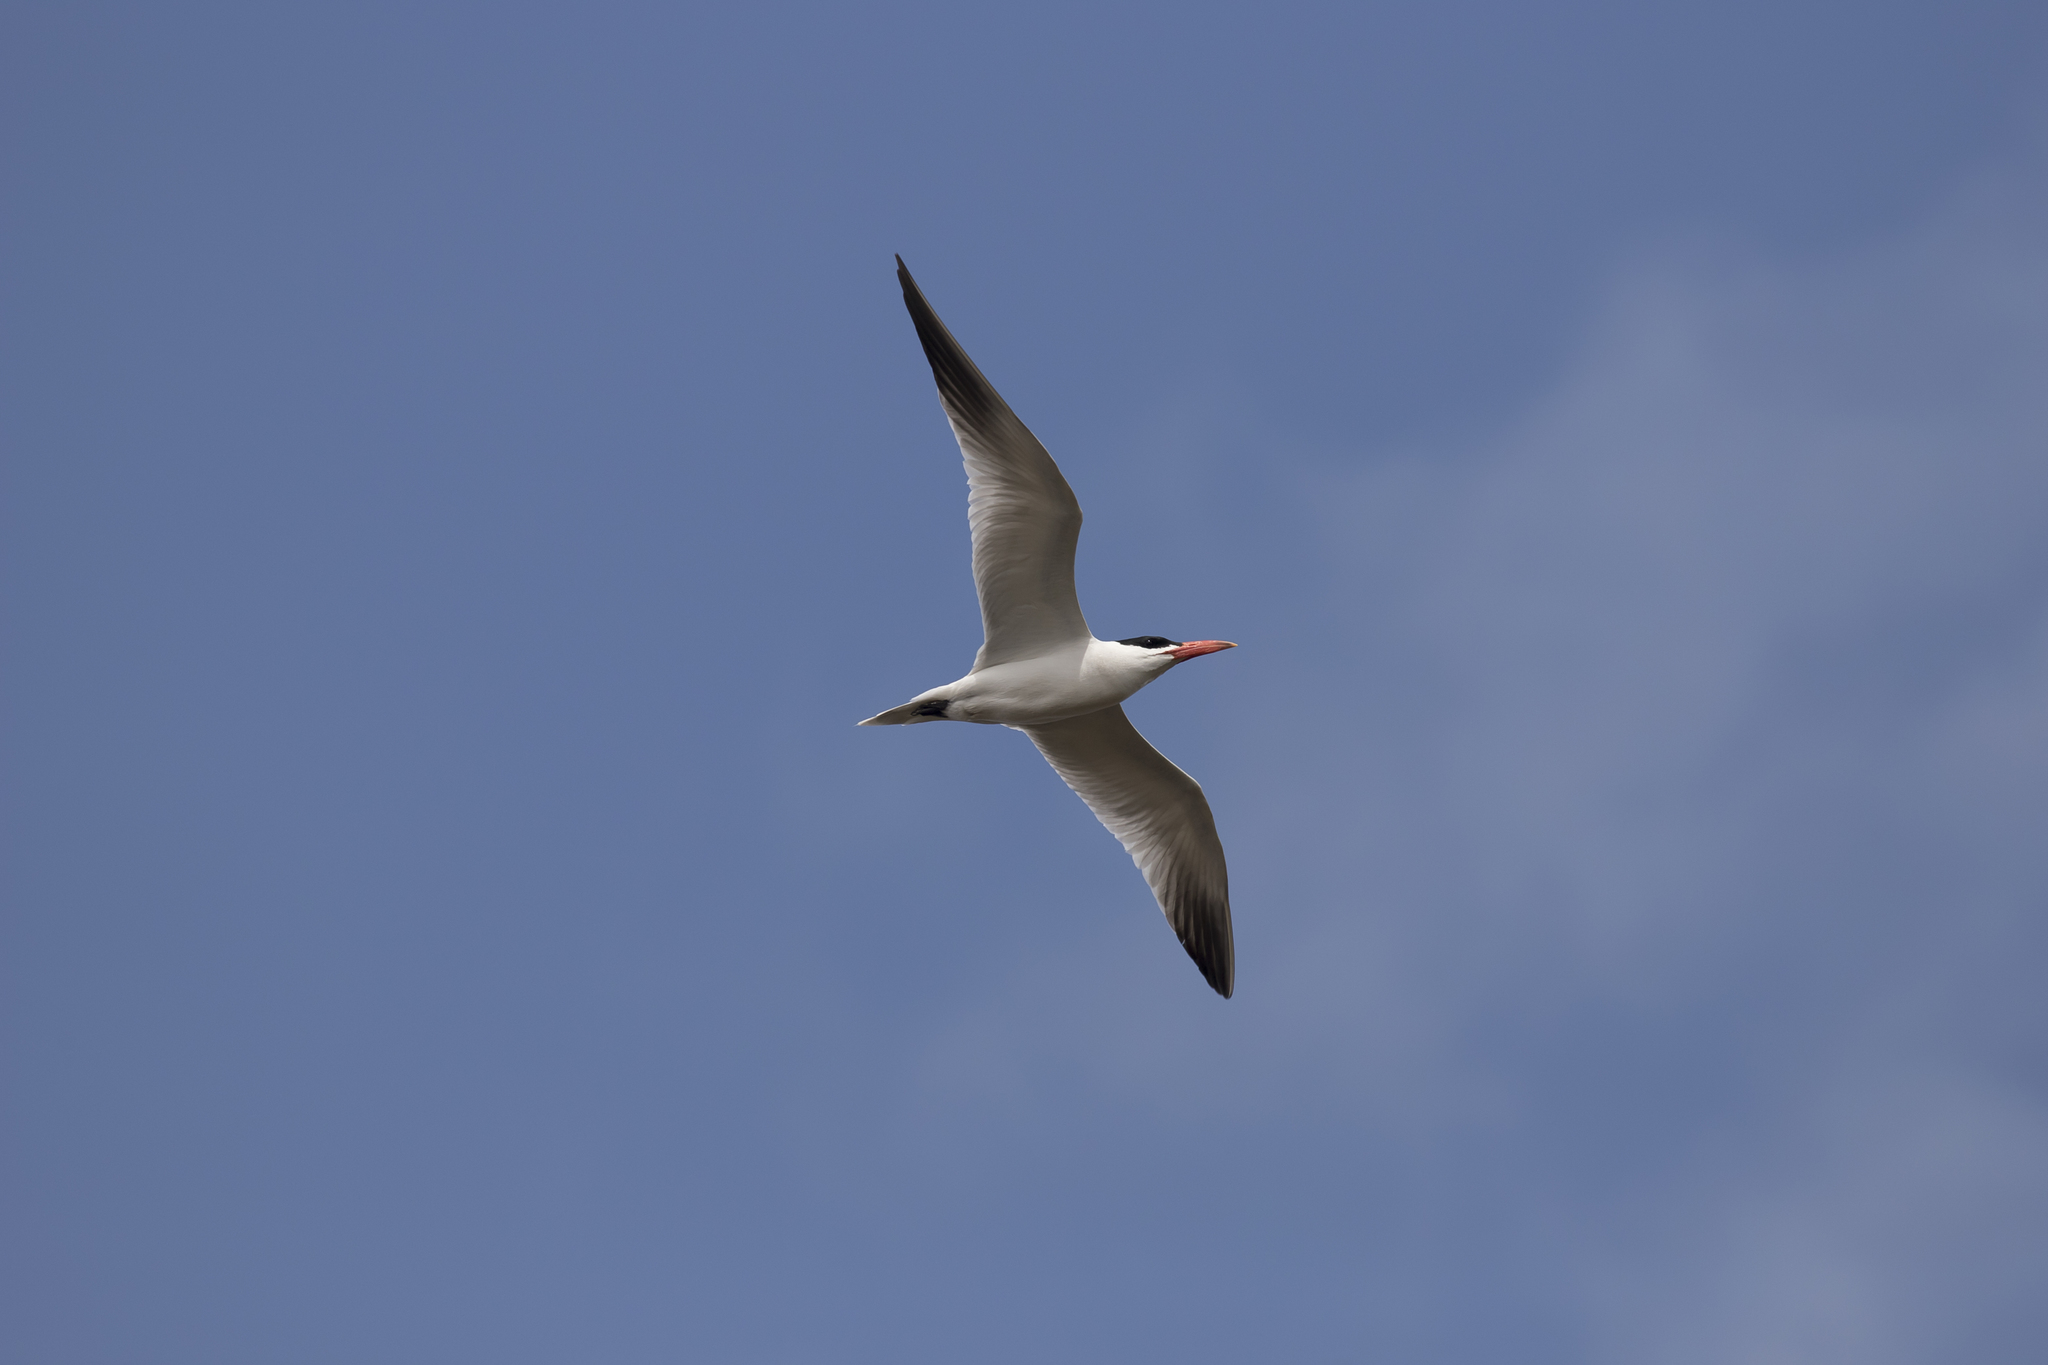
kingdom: Animalia
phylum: Chordata
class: Aves
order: Charadriiformes
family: Laridae
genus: Hydroprogne
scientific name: Hydroprogne caspia
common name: Caspian tern
